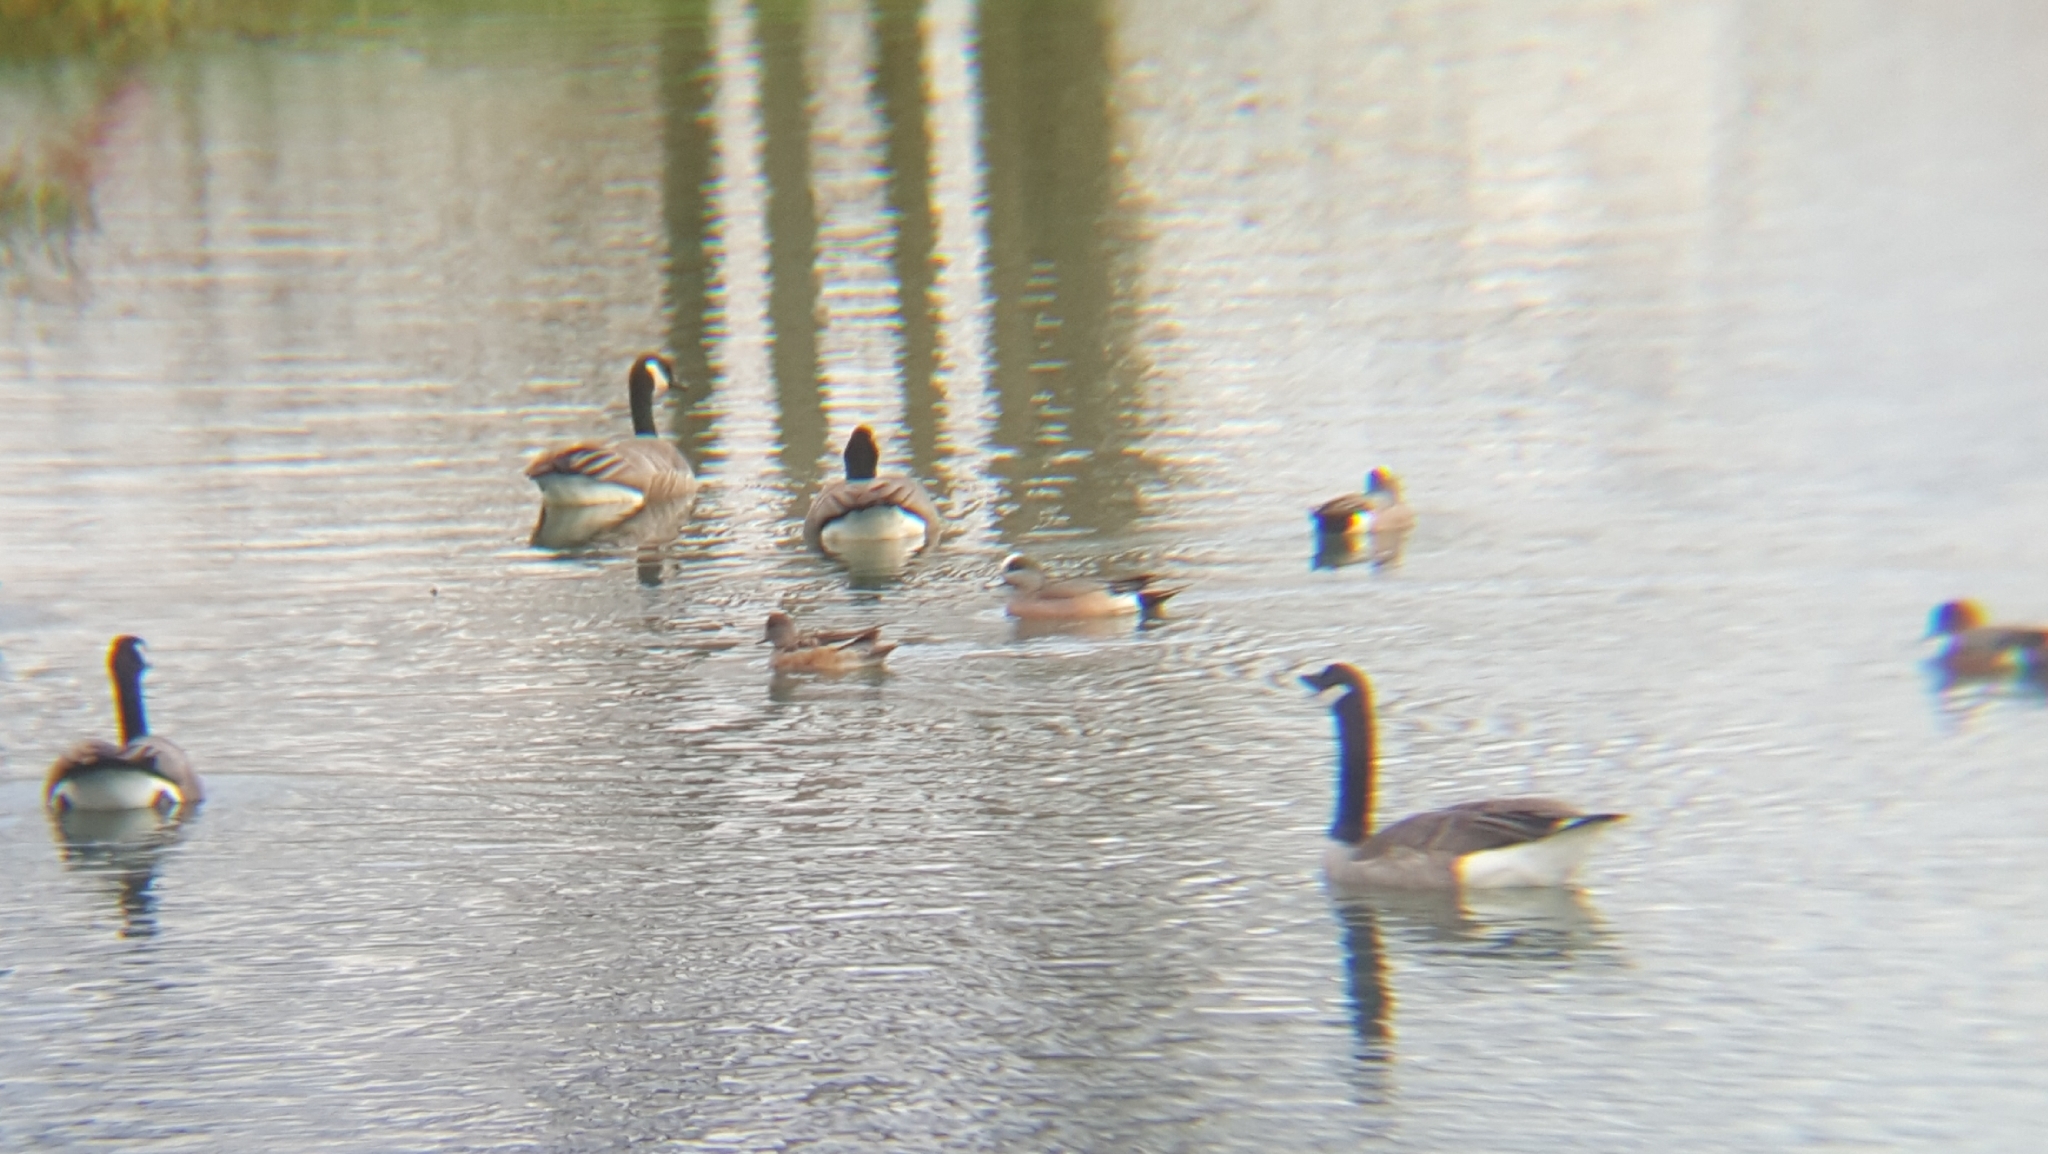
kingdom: Animalia
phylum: Chordata
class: Aves
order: Anseriformes
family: Anatidae
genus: Mareca
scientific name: Mareca americana
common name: American wigeon
